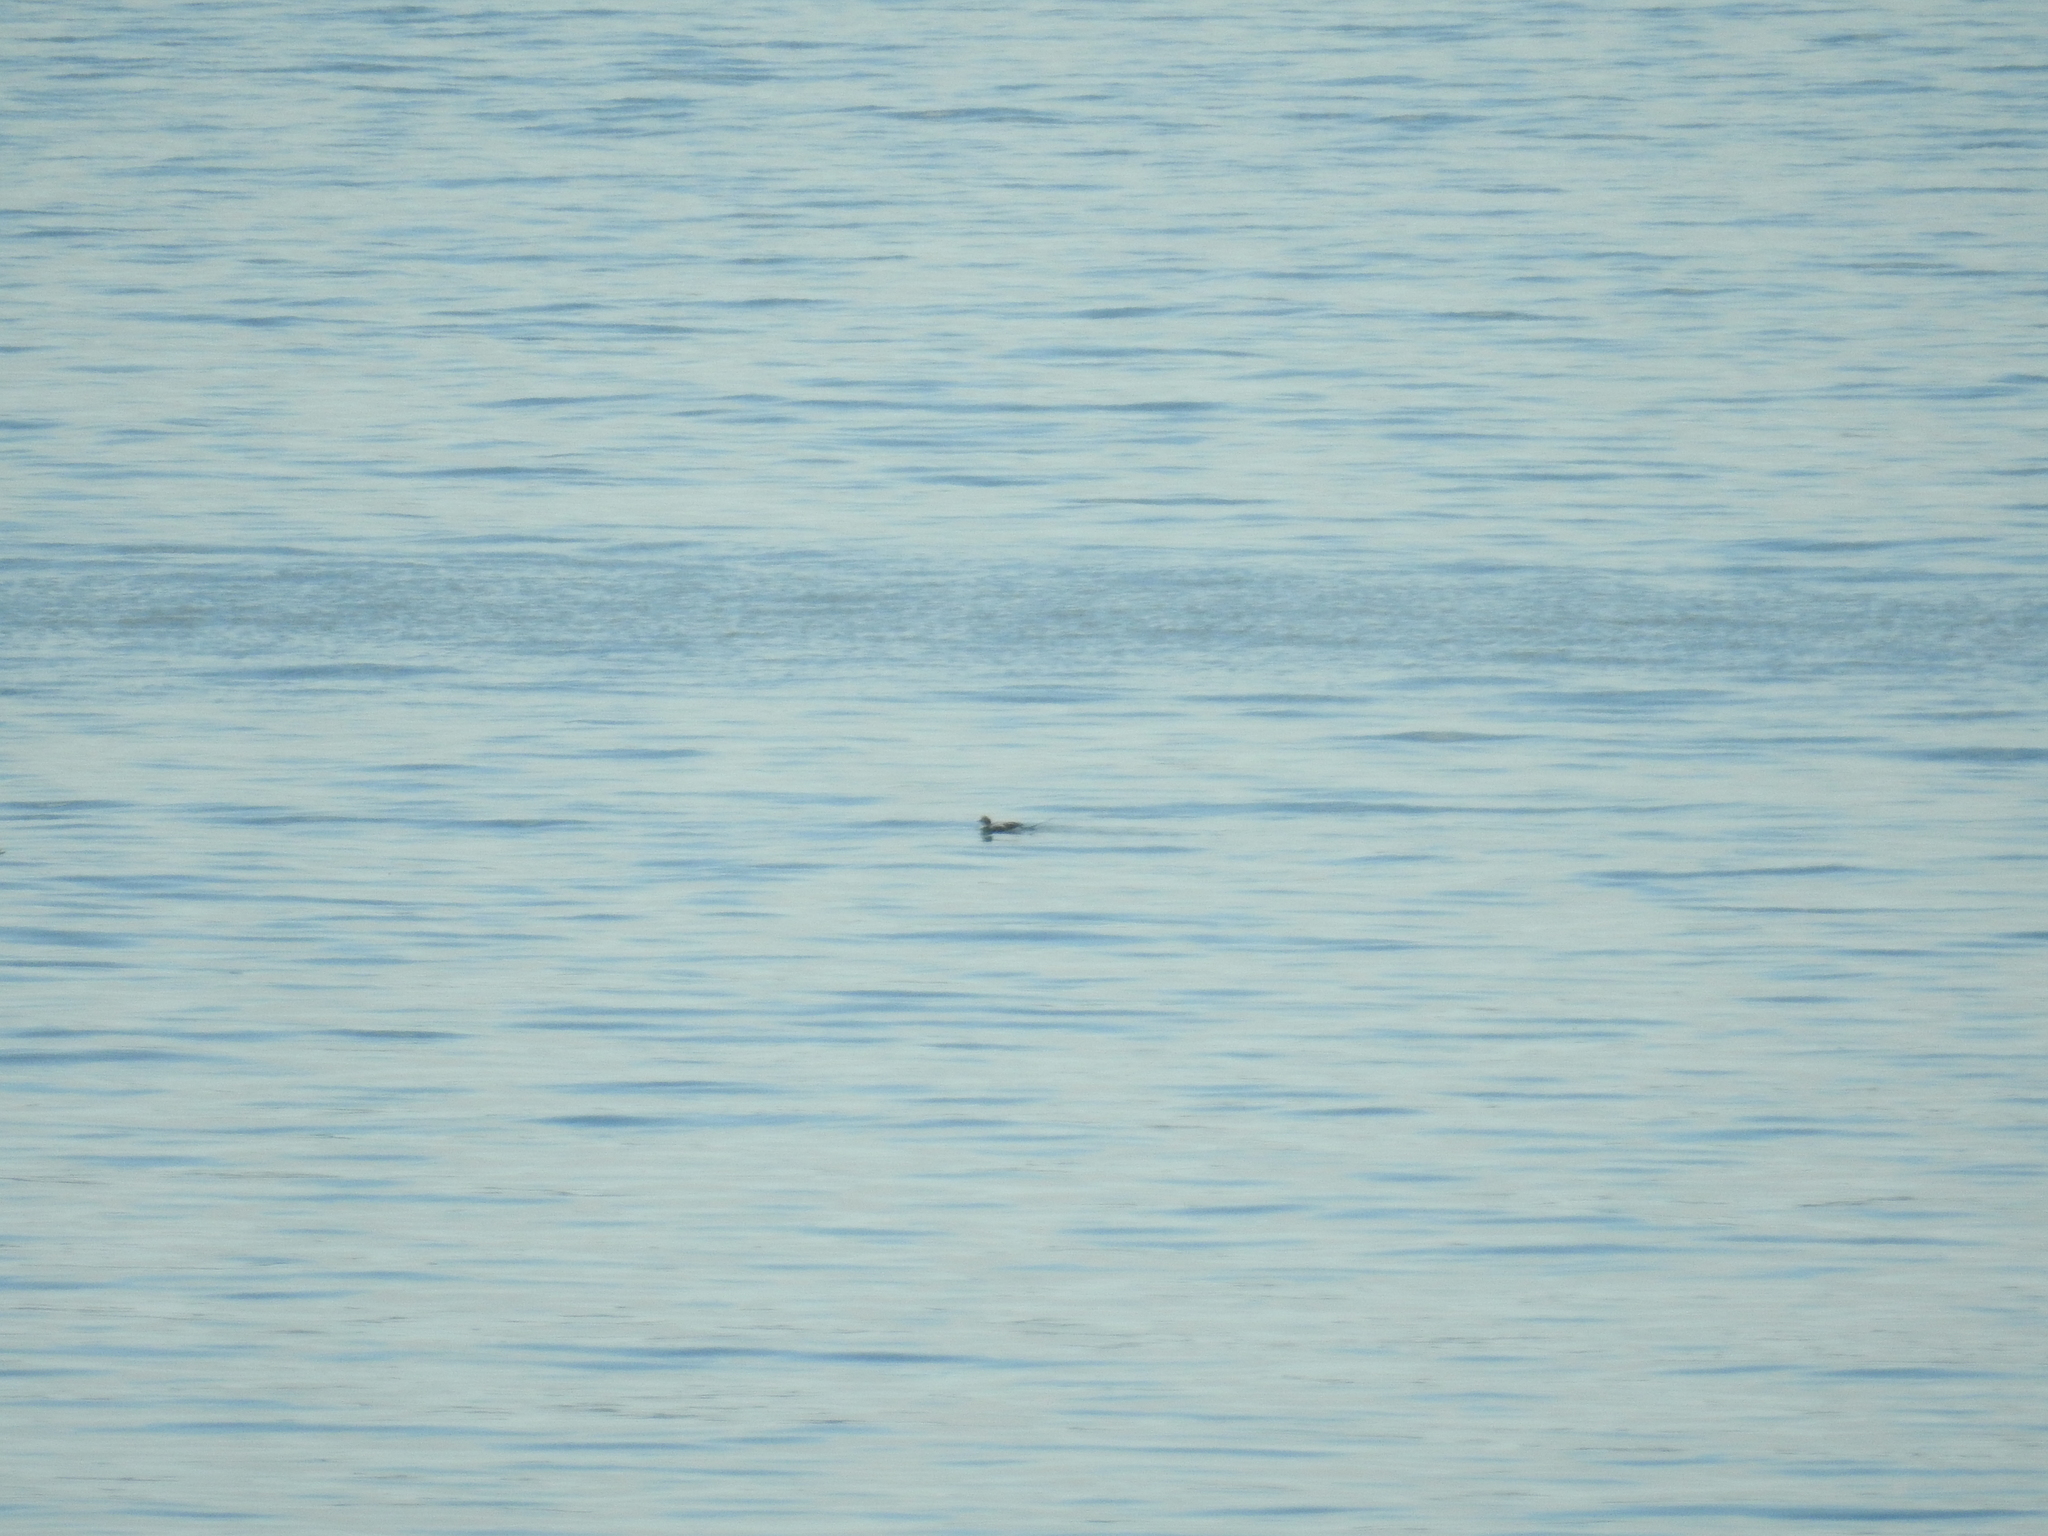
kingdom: Animalia
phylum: Chordata
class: Aves
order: Anseriformes
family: Anatidae
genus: Clangula
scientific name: Clangula hyemalis
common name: Long-tailed duck
